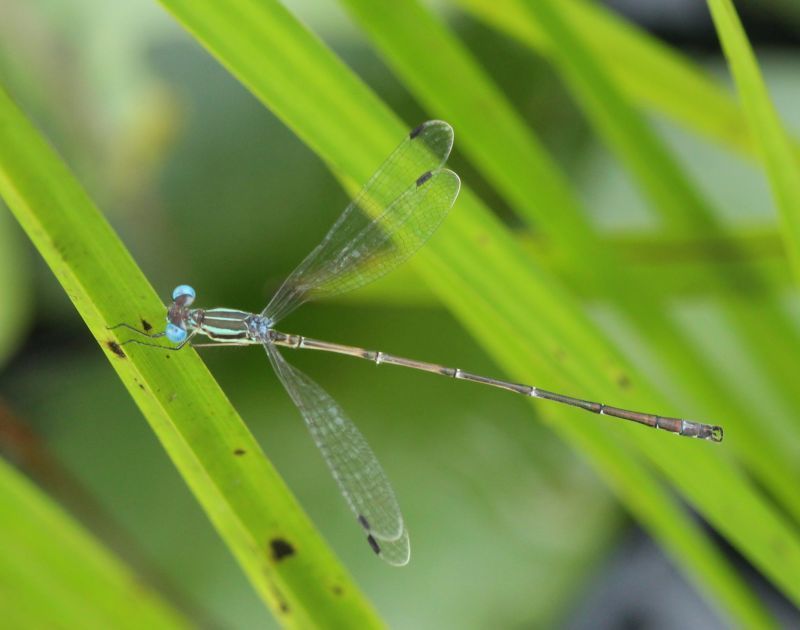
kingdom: Animalia
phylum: Arthropoda
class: Insecta
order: Odonata
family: Lestidae
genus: Lestes
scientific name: Lestes rectangularis
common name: Slender spreadwing
